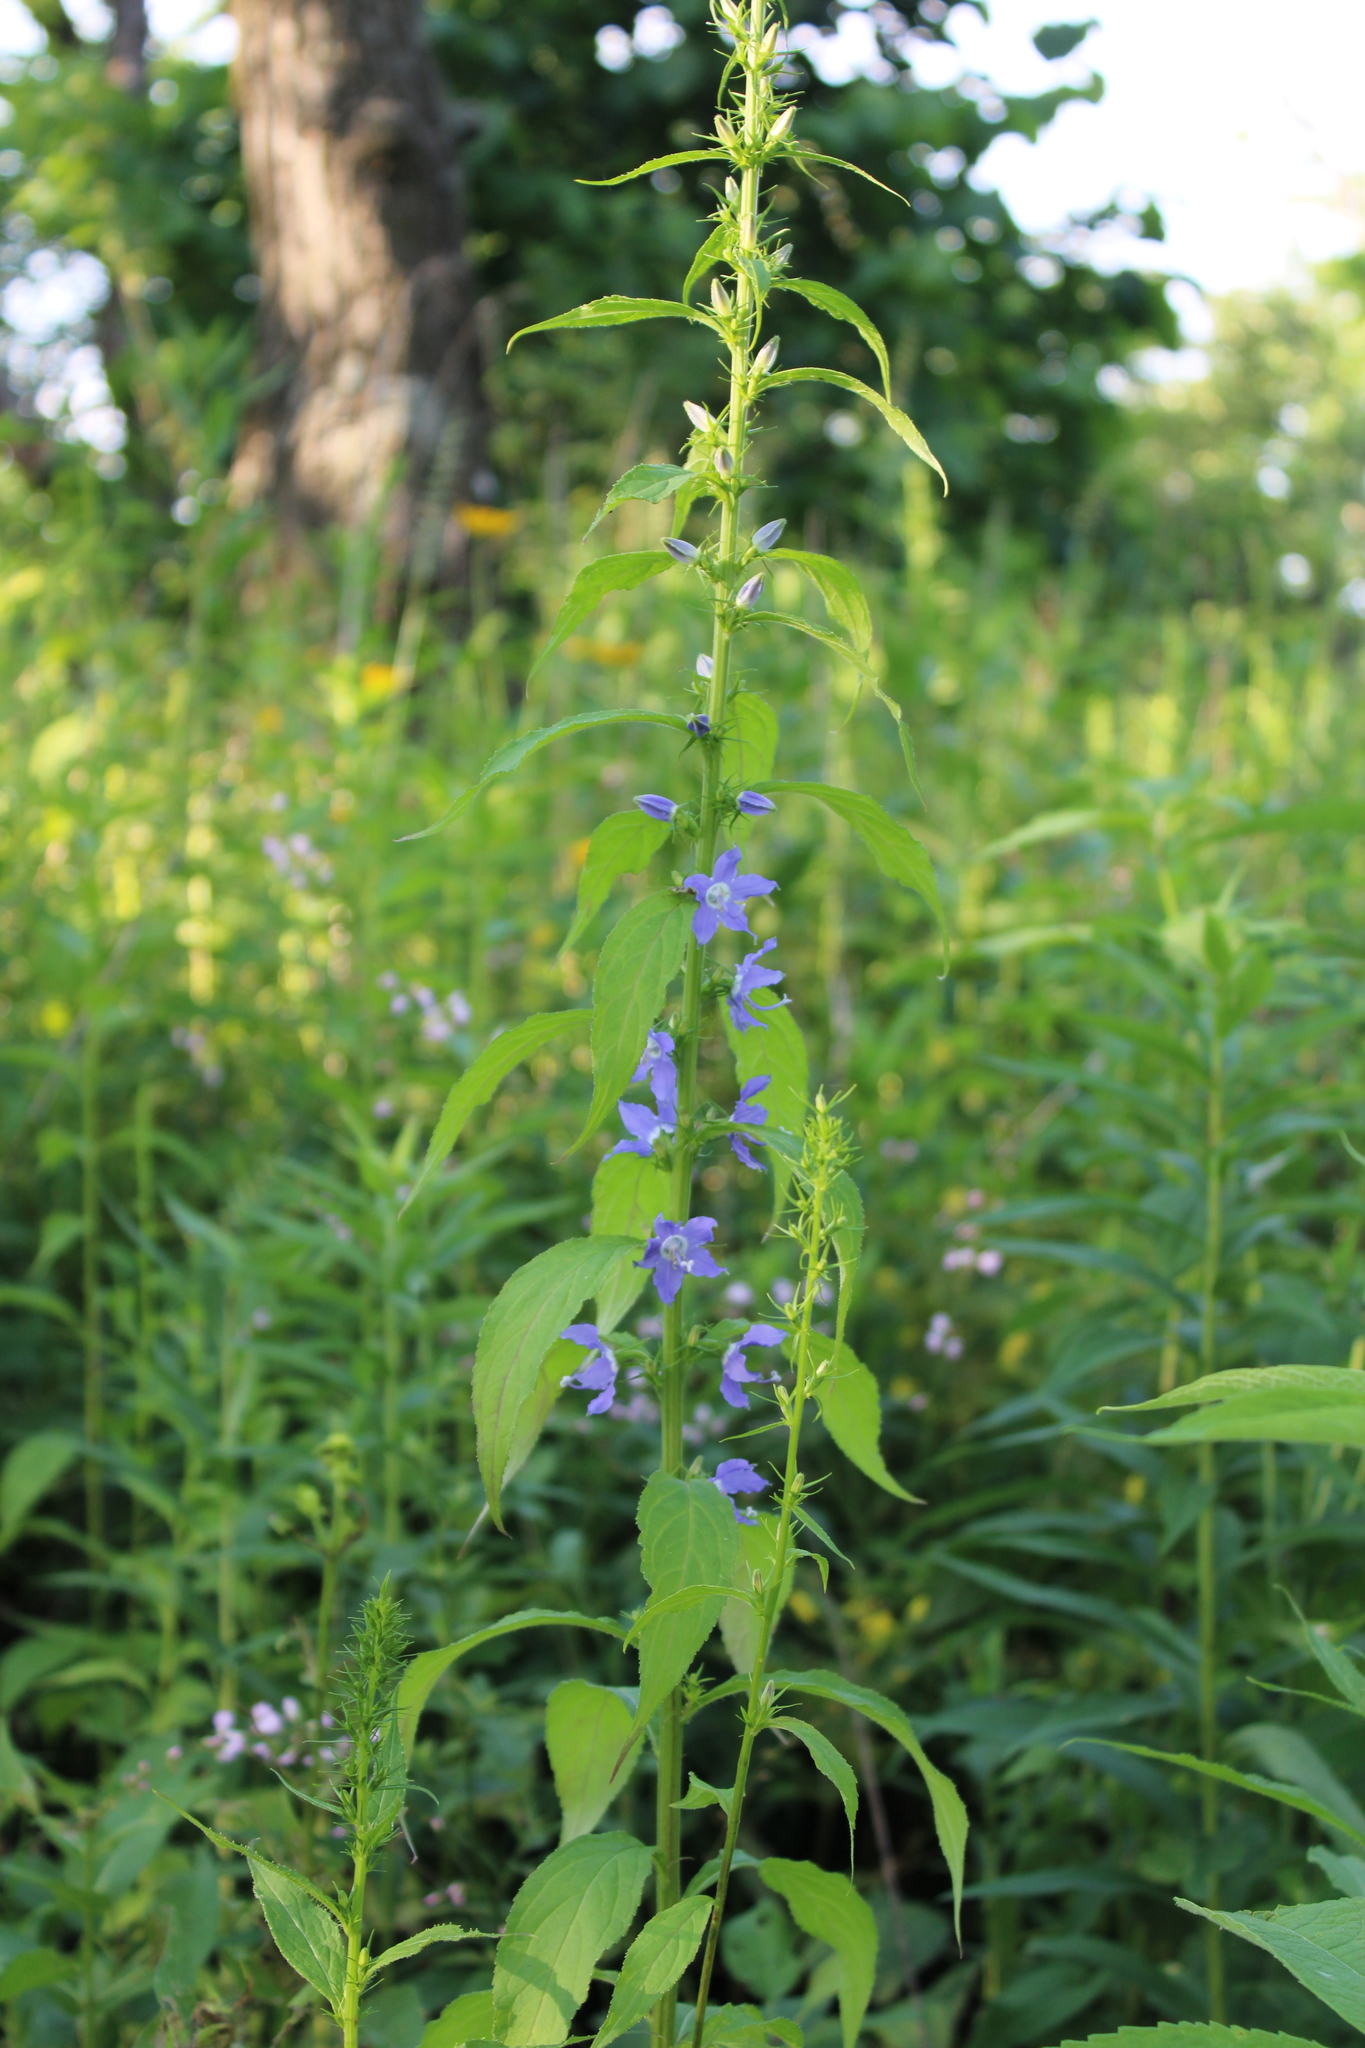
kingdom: Plantae
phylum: Tracheophyta
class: Magnoliopsida
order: Asterales
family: Campanulaceae
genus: Campanulastrum
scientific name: Campanulastrum americanum
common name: American bellflower
